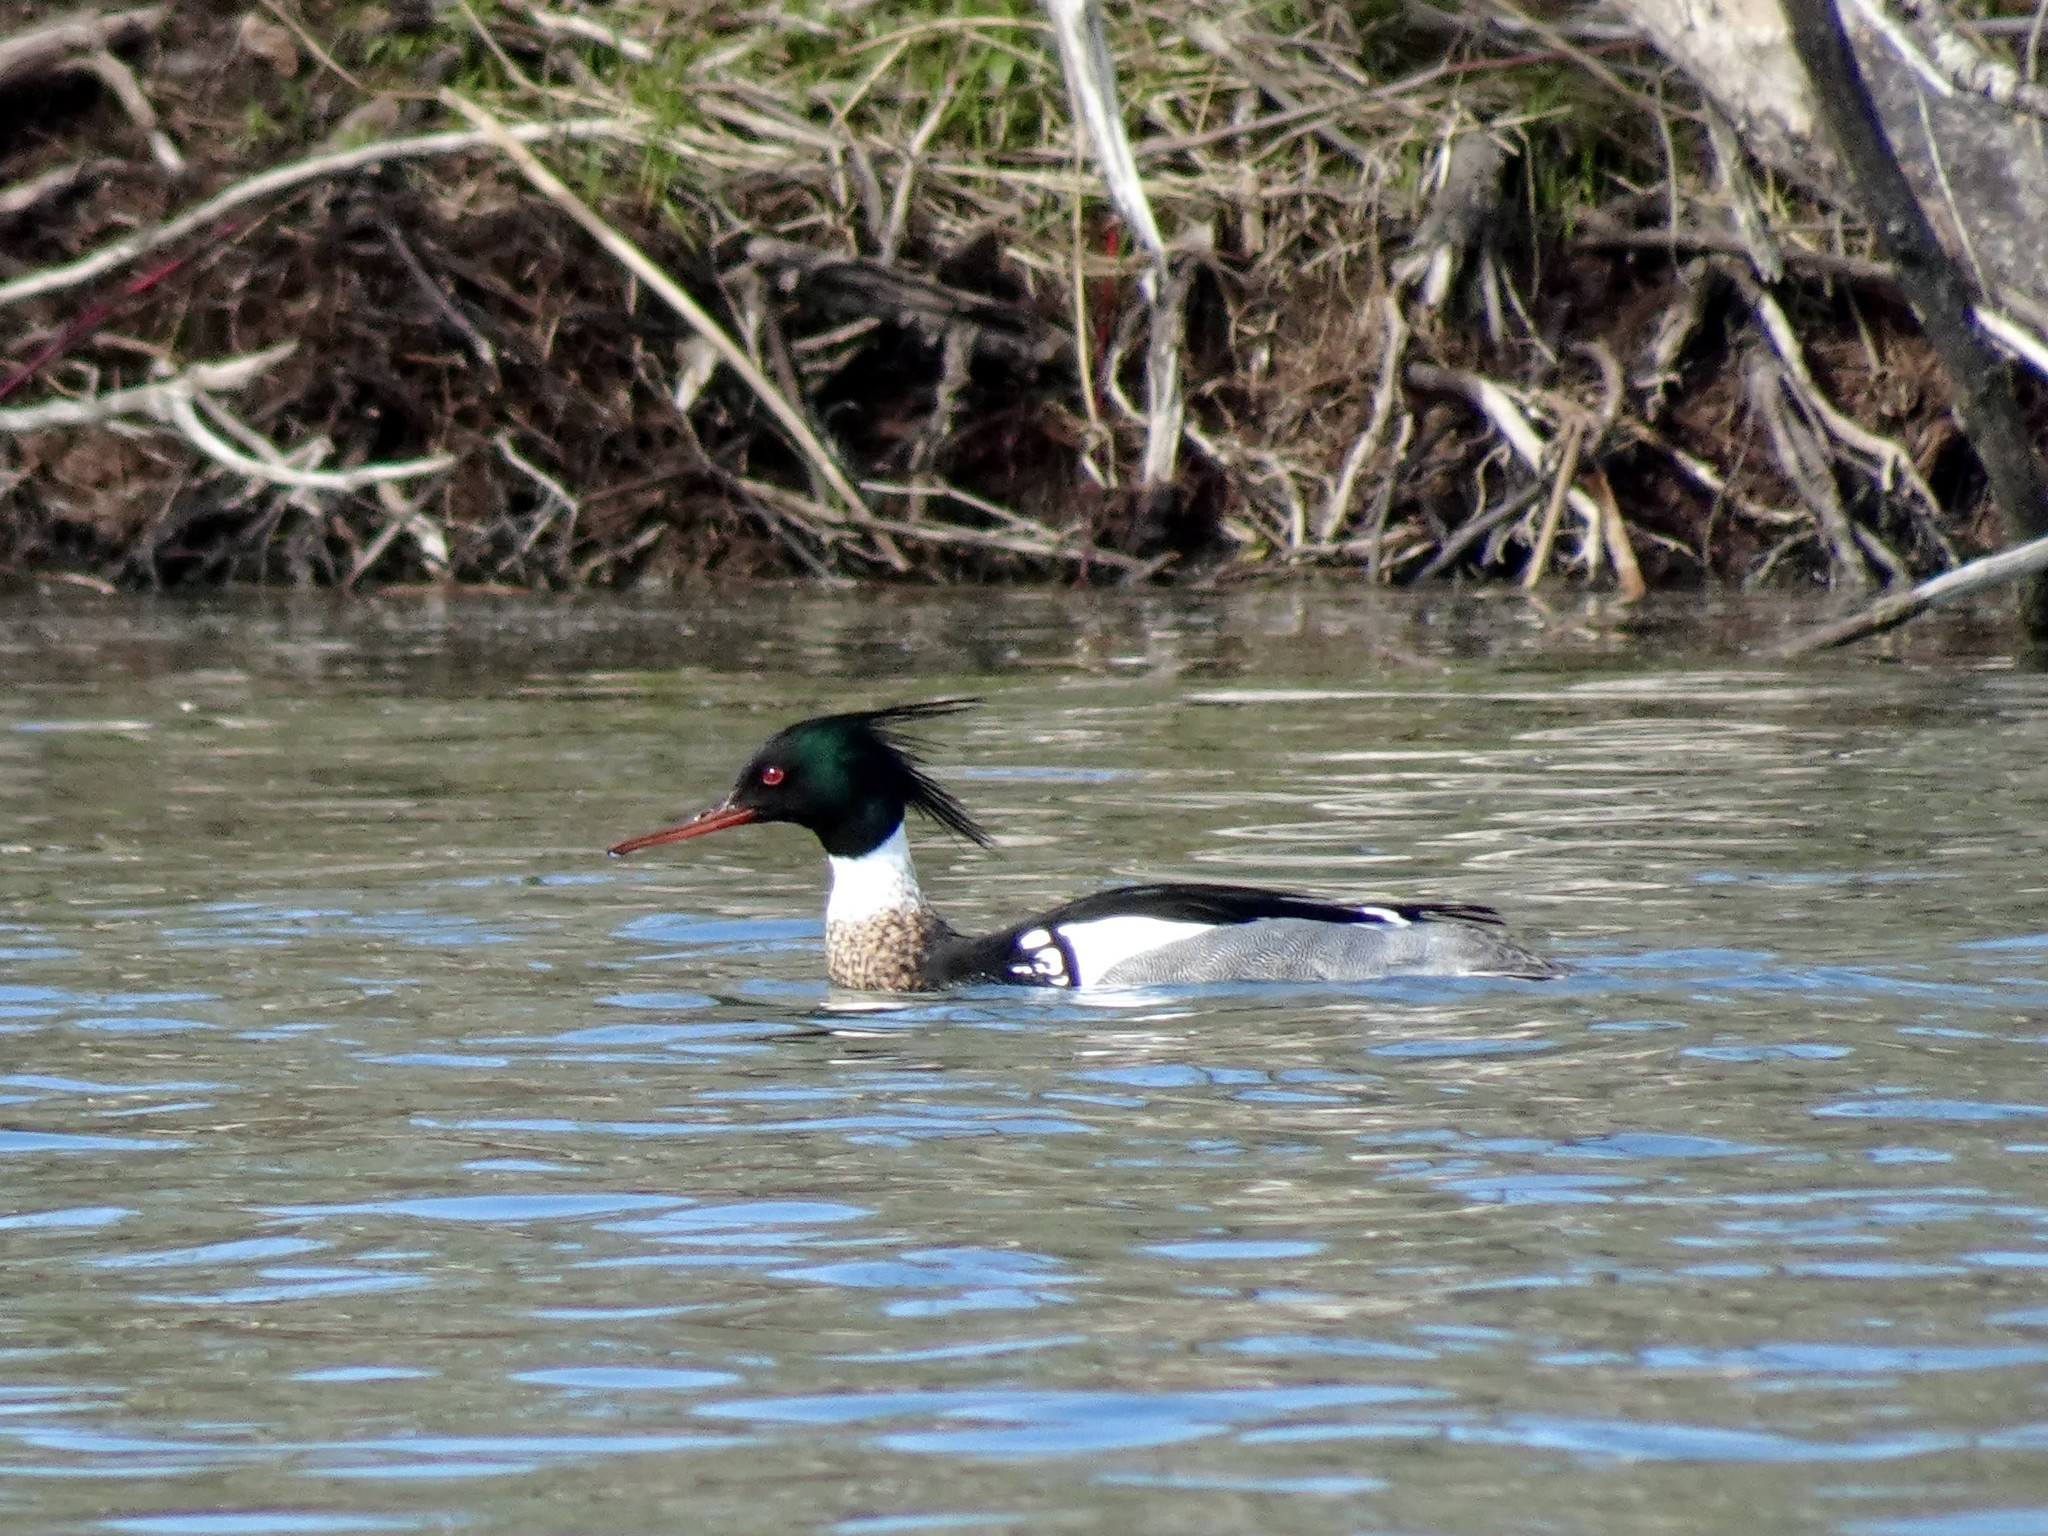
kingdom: Animalia
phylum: Chordata
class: Aves
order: Anseriformes
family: Anatidae
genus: Mergus
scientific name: Mergus serrator
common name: Red-breasted merganser
